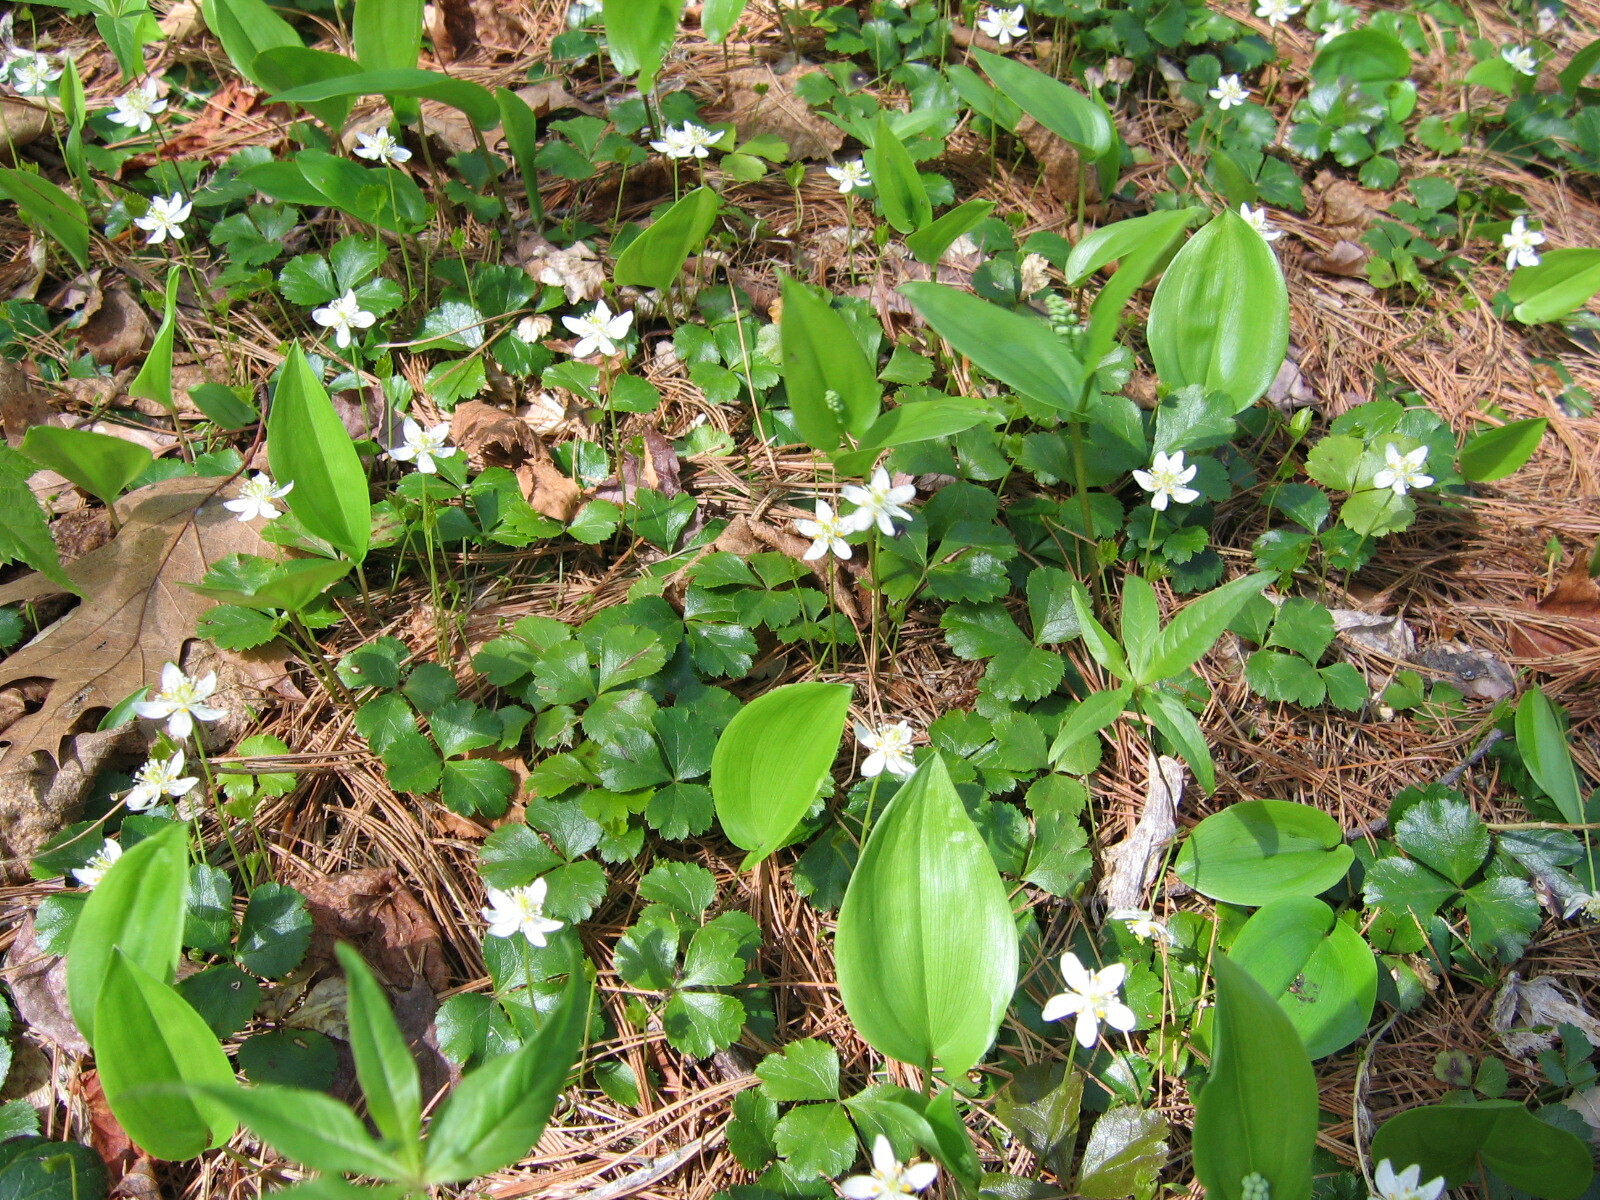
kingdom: Plantae
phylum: Tracheophyta
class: Magnoliopsida
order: Ranunculales
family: Ranunculaceae
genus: Coptis
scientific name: Coptis trifolia
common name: Canker-root
